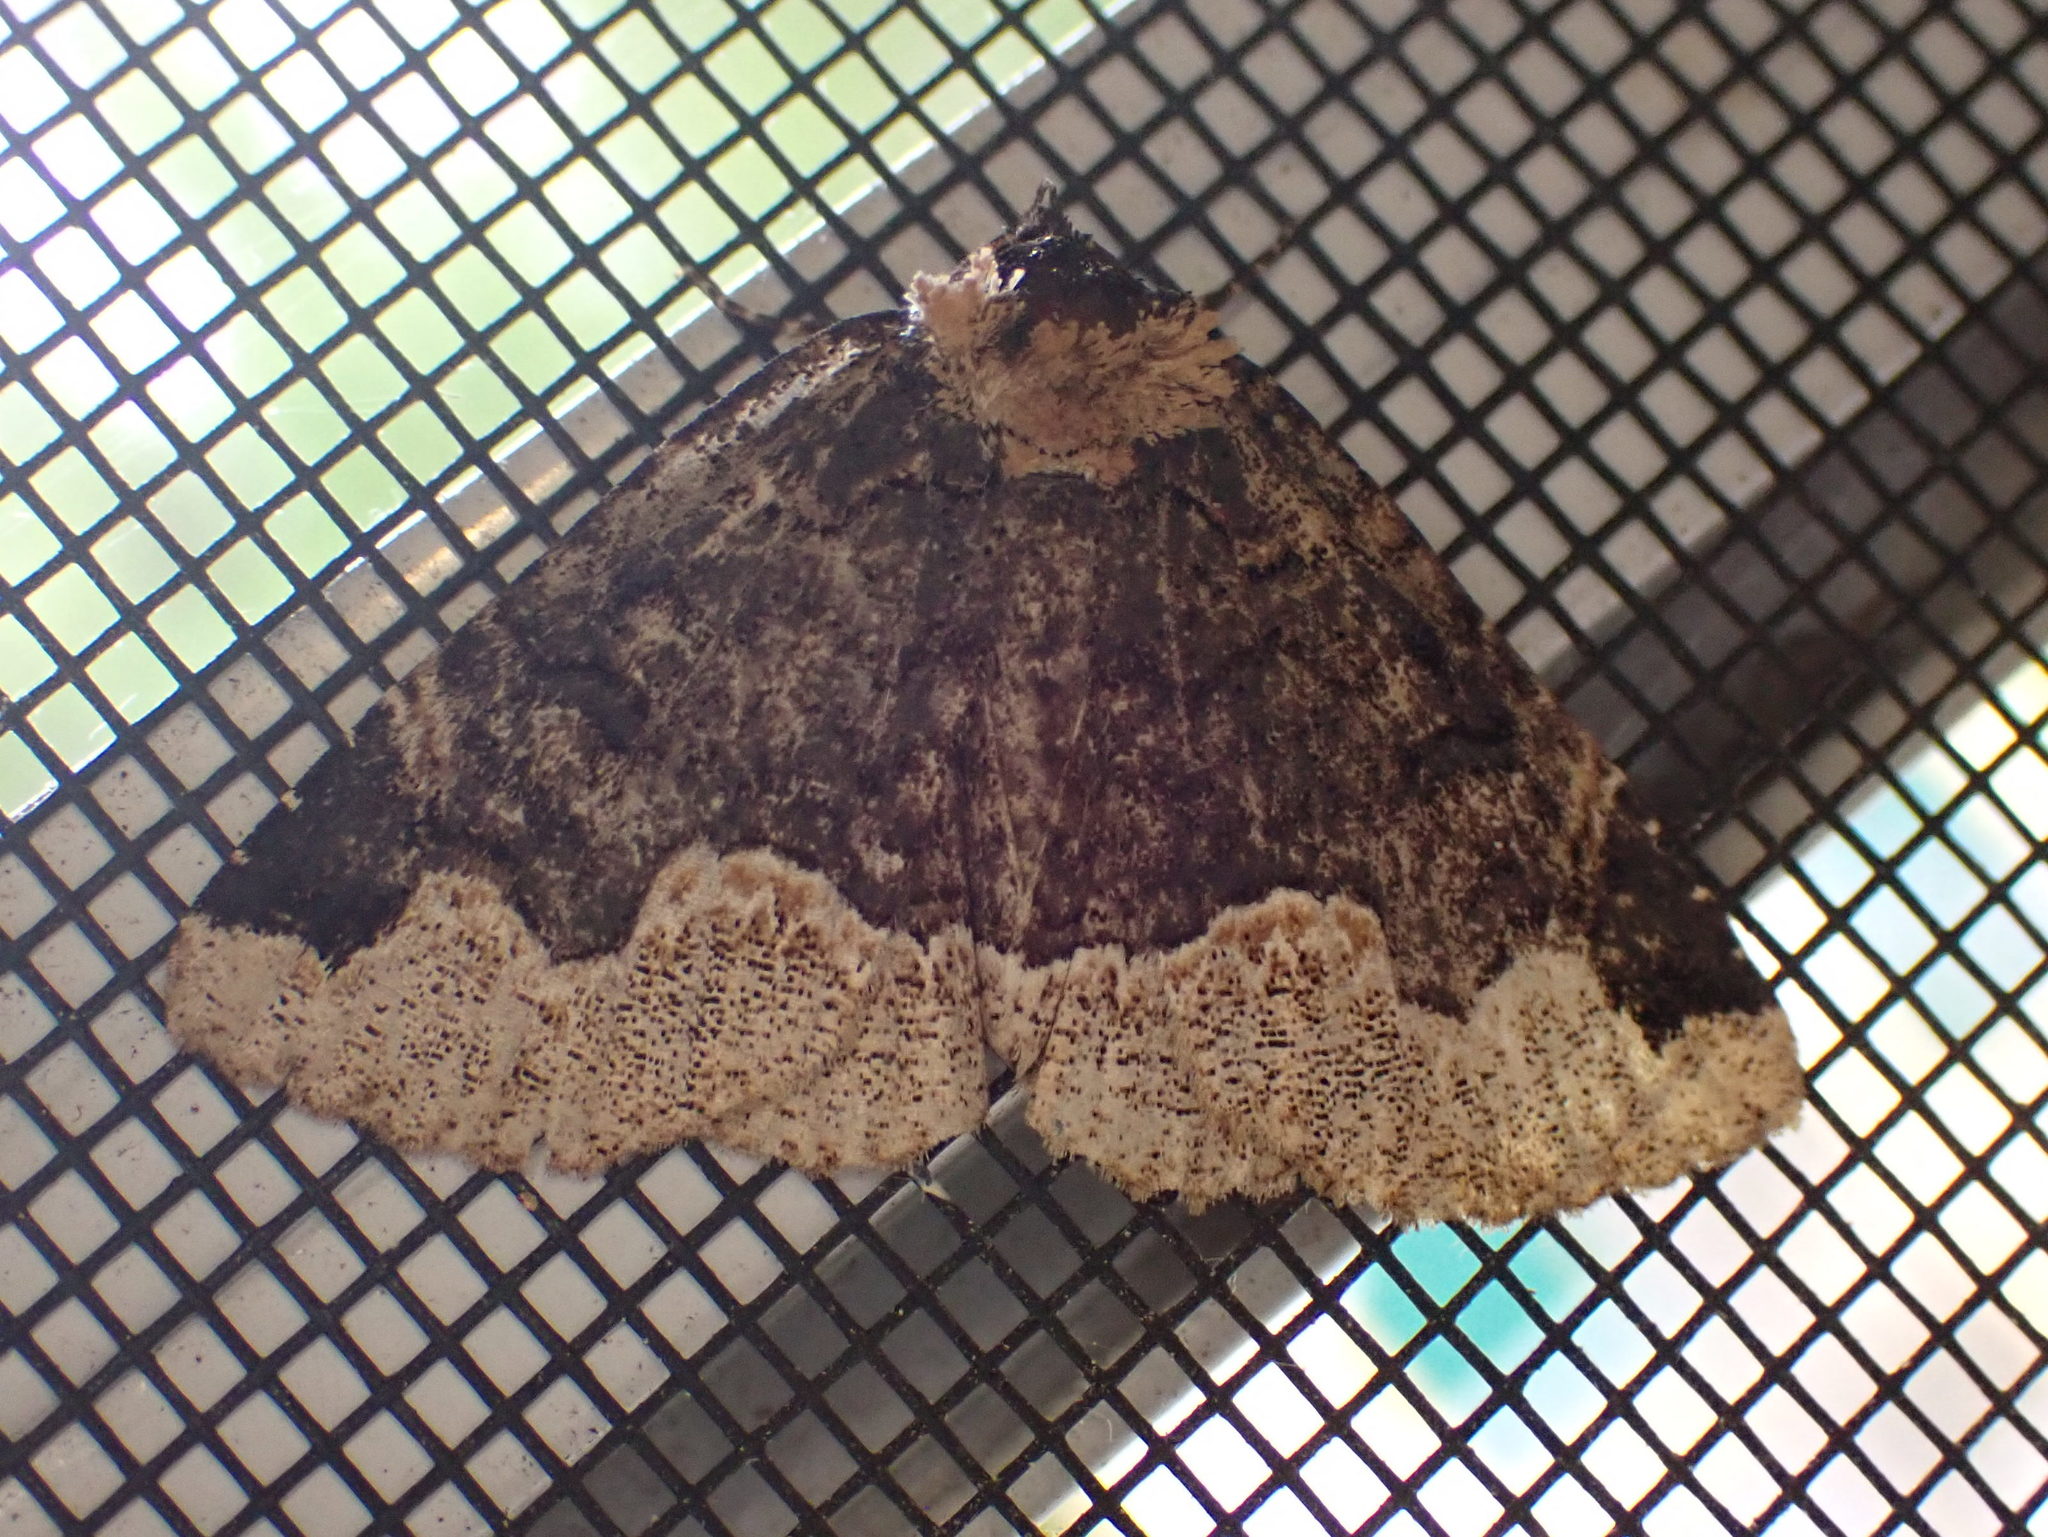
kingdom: Animalia
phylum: Arthropoda
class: Insecta
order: Lepidoptera
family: Erebidae
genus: Zale
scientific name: Zale horrida
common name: Horrid zale moth
